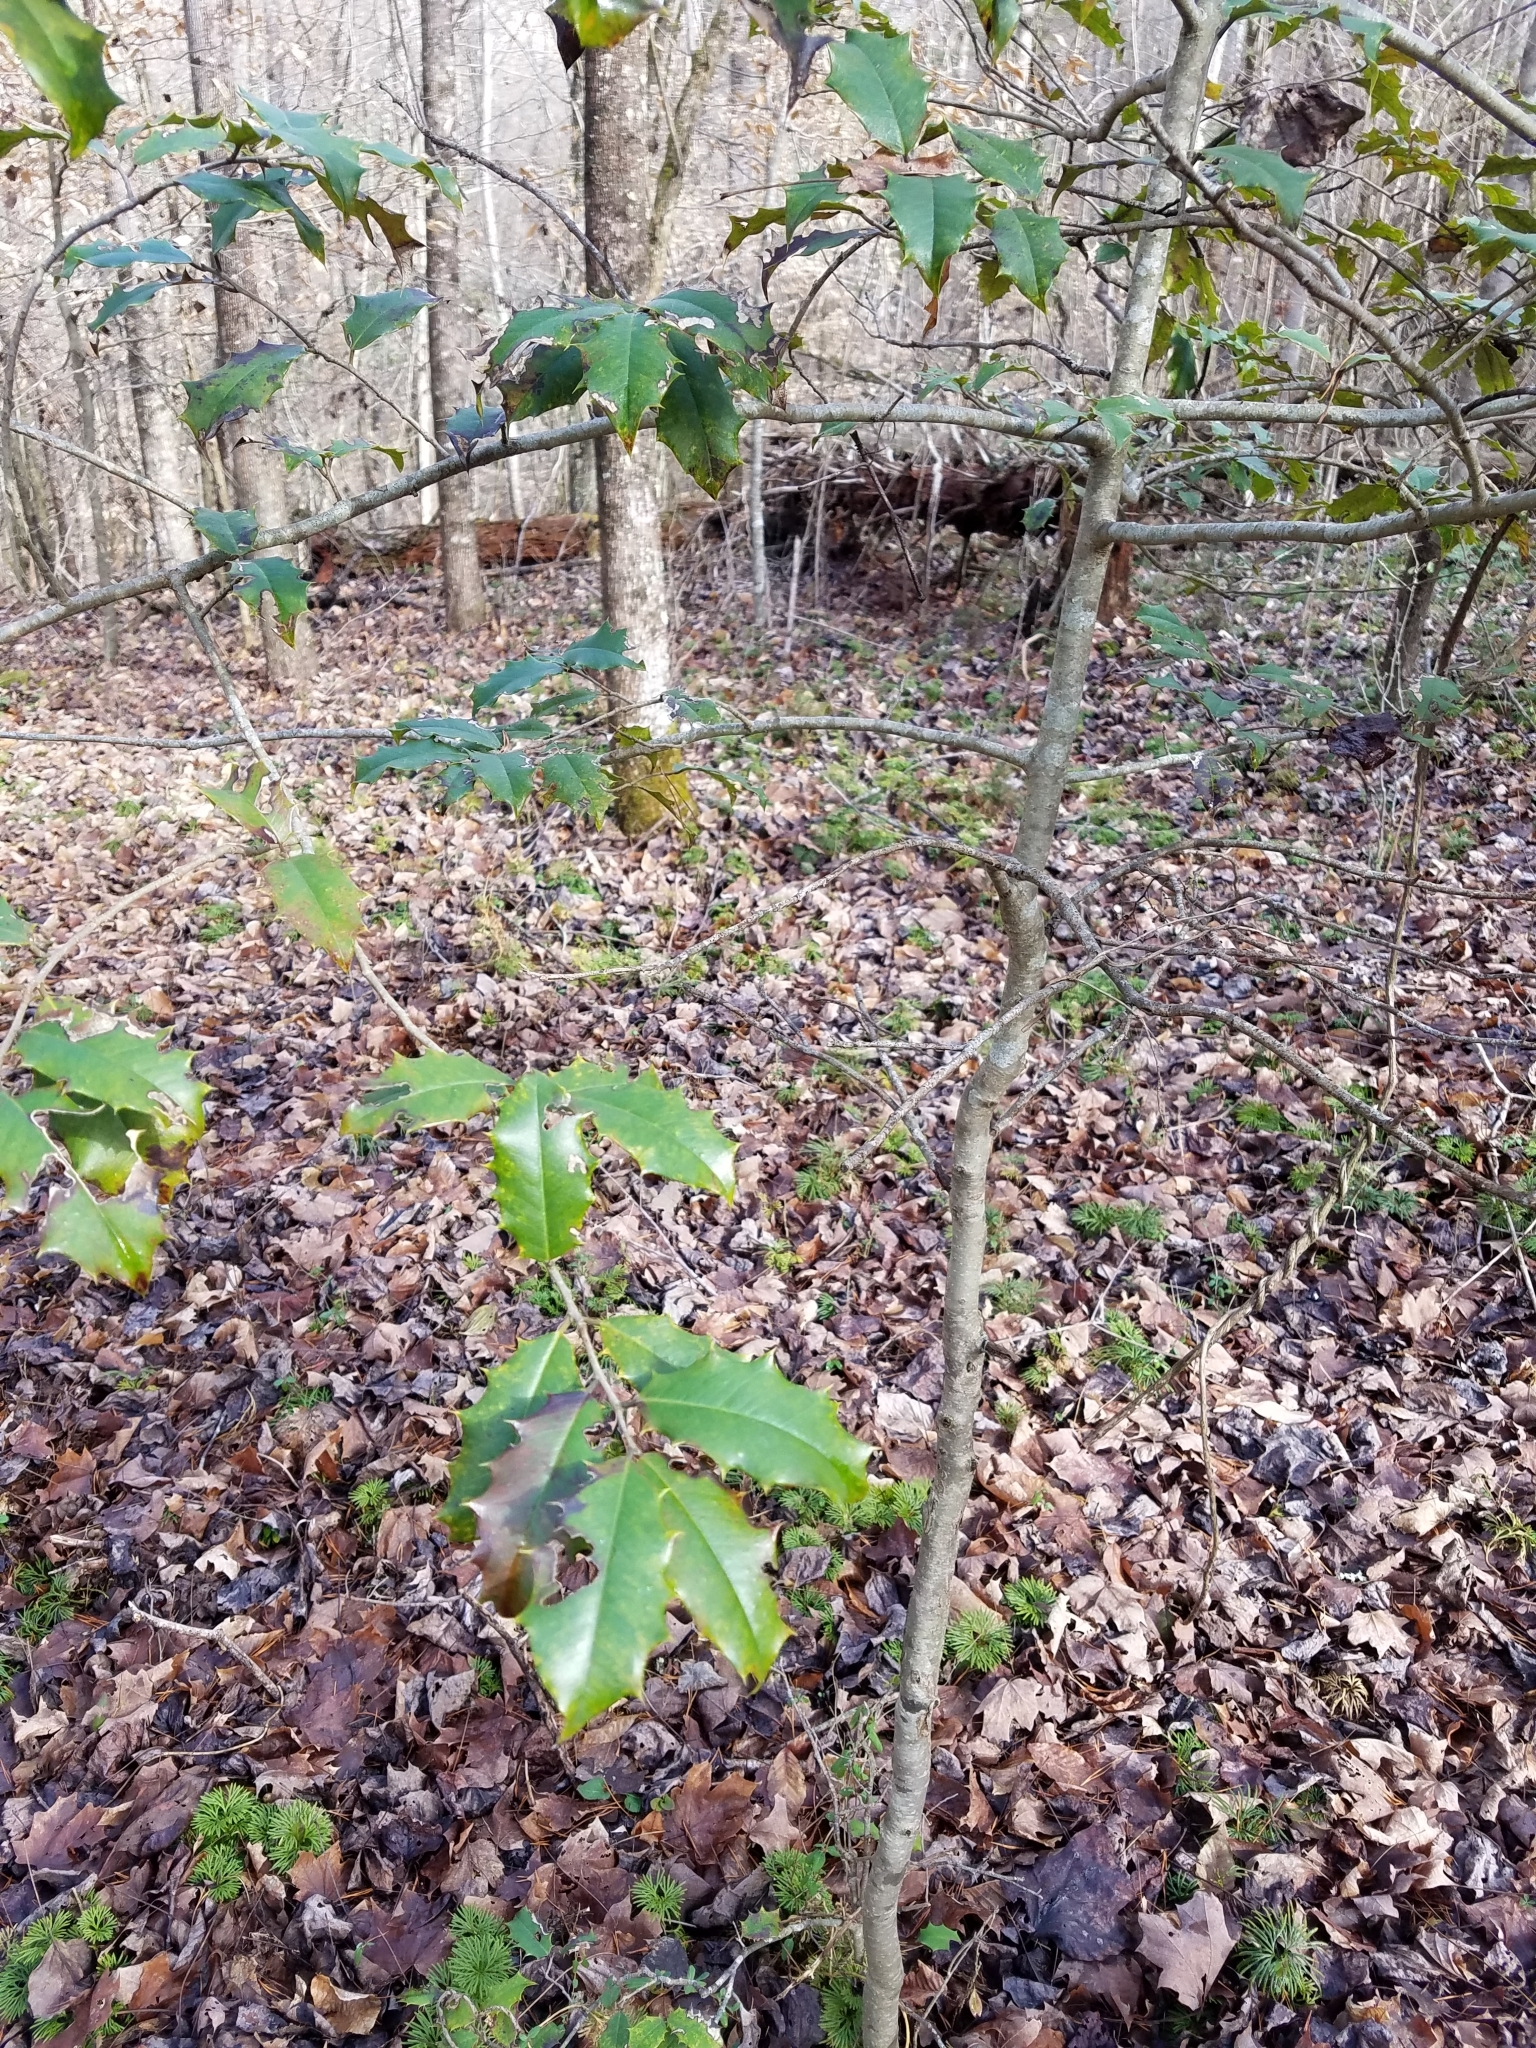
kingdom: Plantae
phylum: Tracheophyta
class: Magnoliopsida
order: Aquifoliales
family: Aquifoliaceae
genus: Ilex
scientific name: Ilex opaca
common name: American holly
